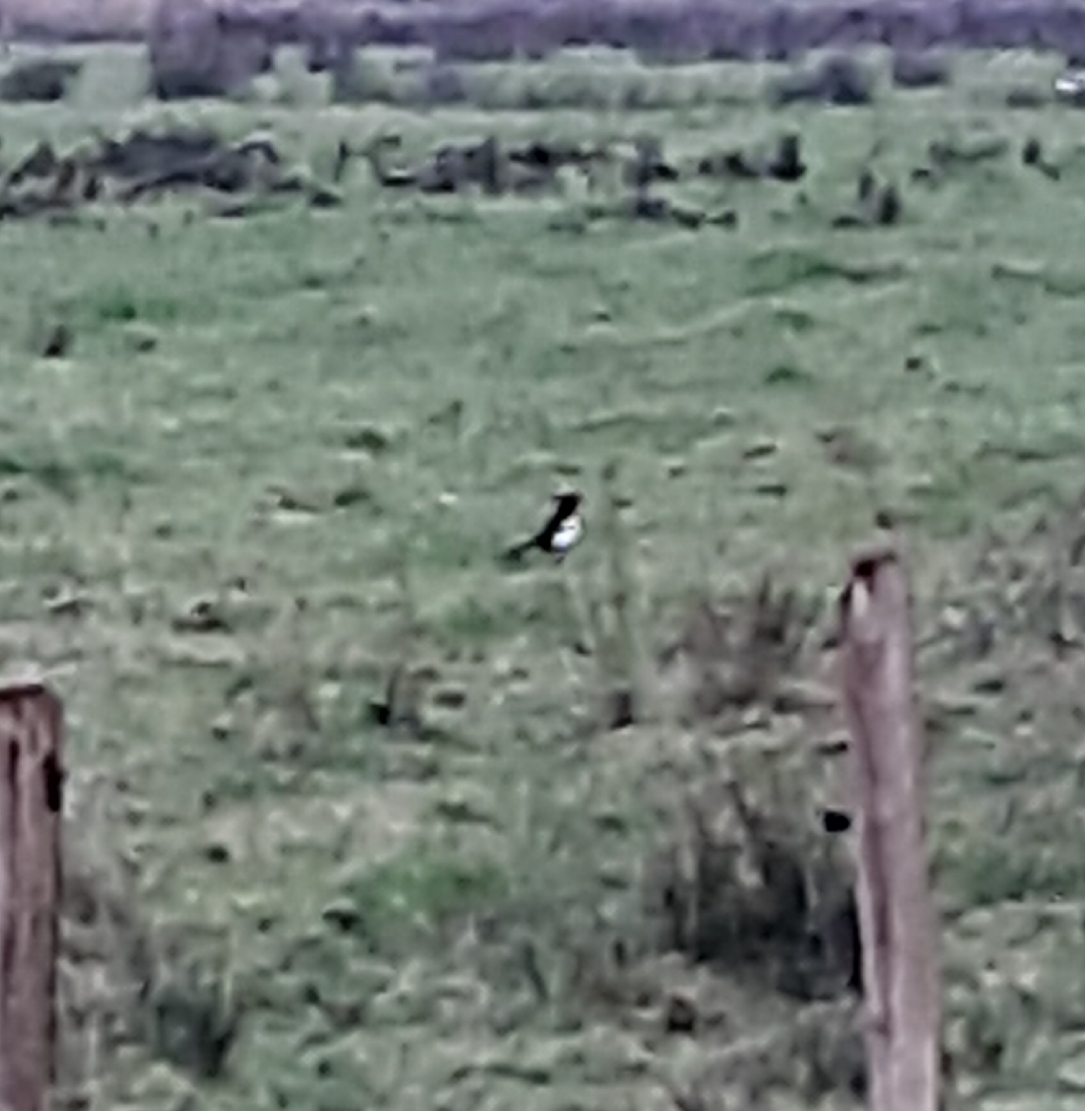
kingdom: Animalia
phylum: Chordata
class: Aves
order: Passeriformes
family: Corvidae
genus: Pica
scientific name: Pica pica
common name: Eurasian magpie
